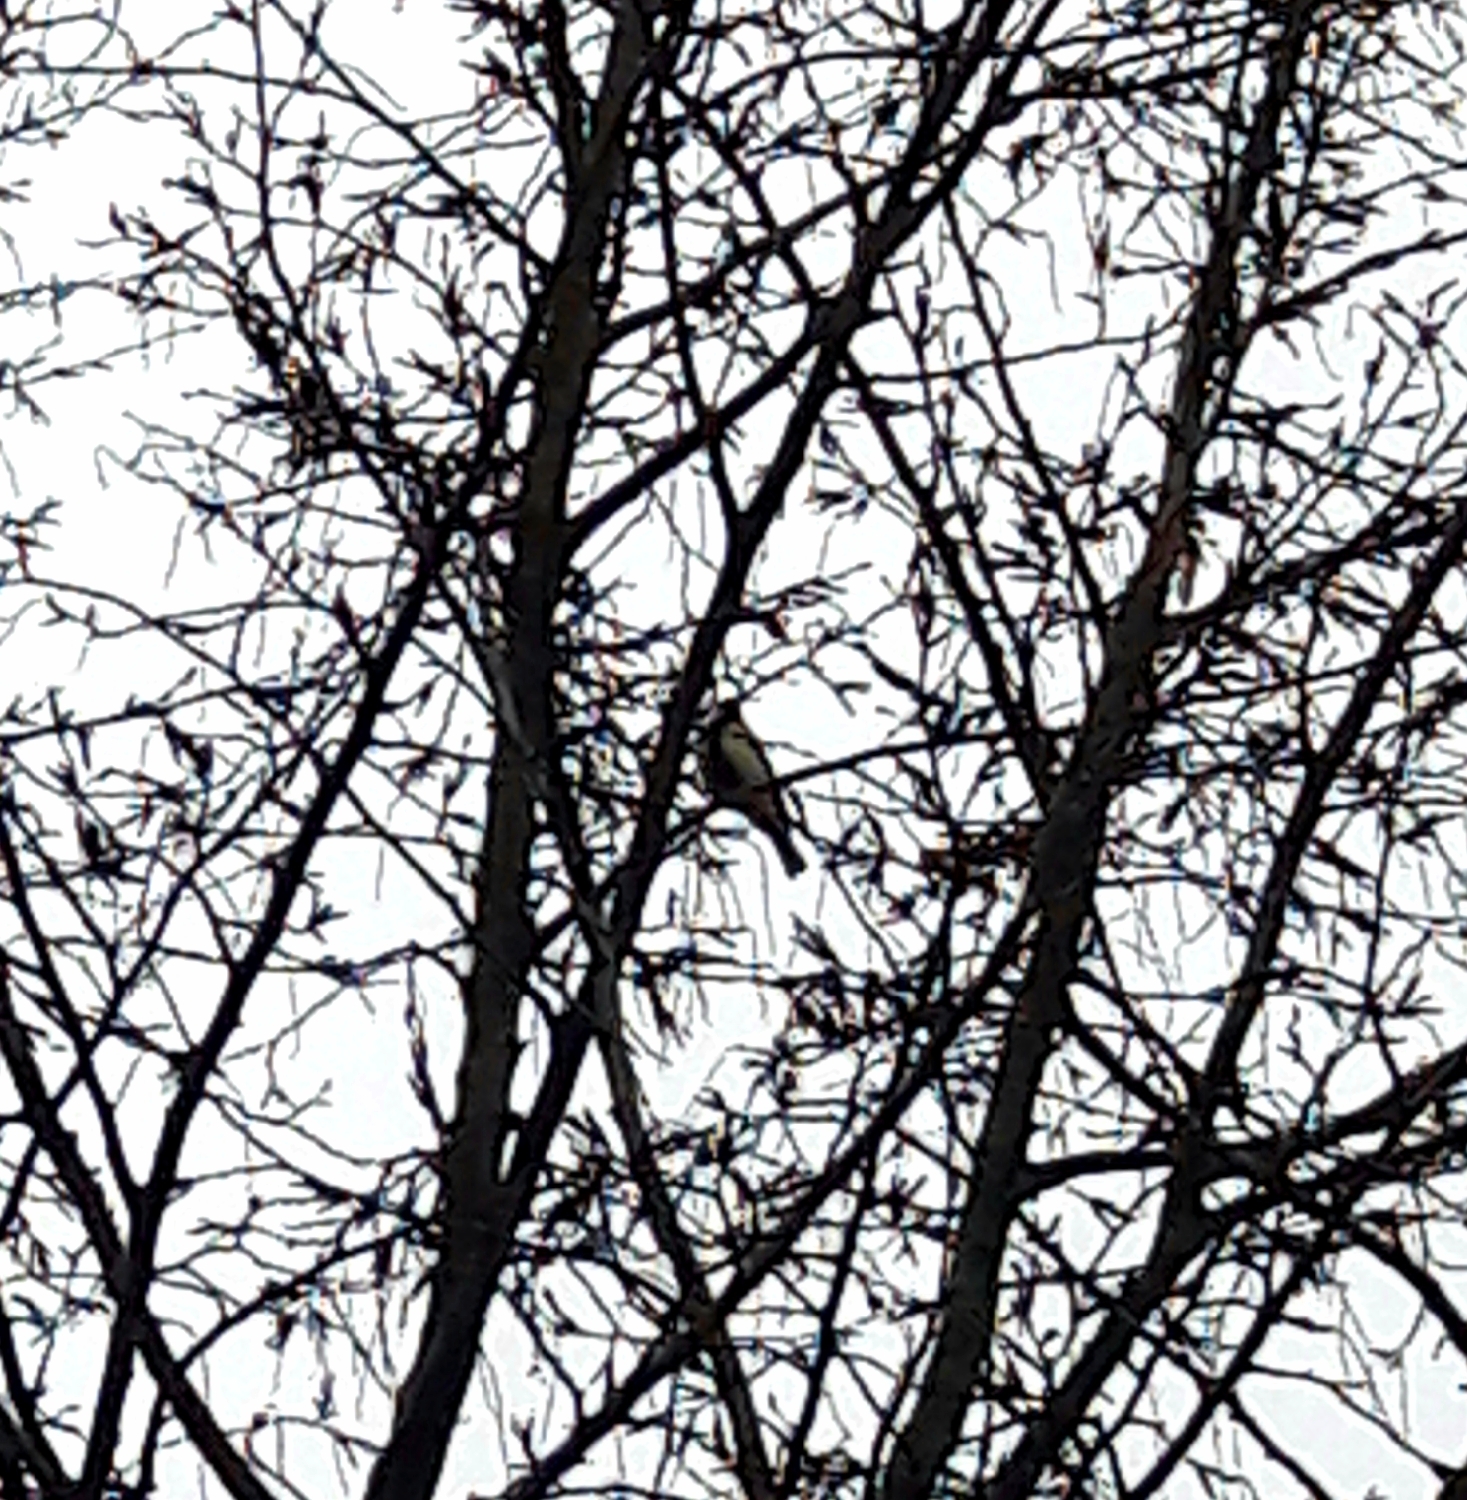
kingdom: Animalia
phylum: Chordata
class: Aves
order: Passeriformes
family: Paridae
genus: Parus
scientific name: Parus major
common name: Great tit
